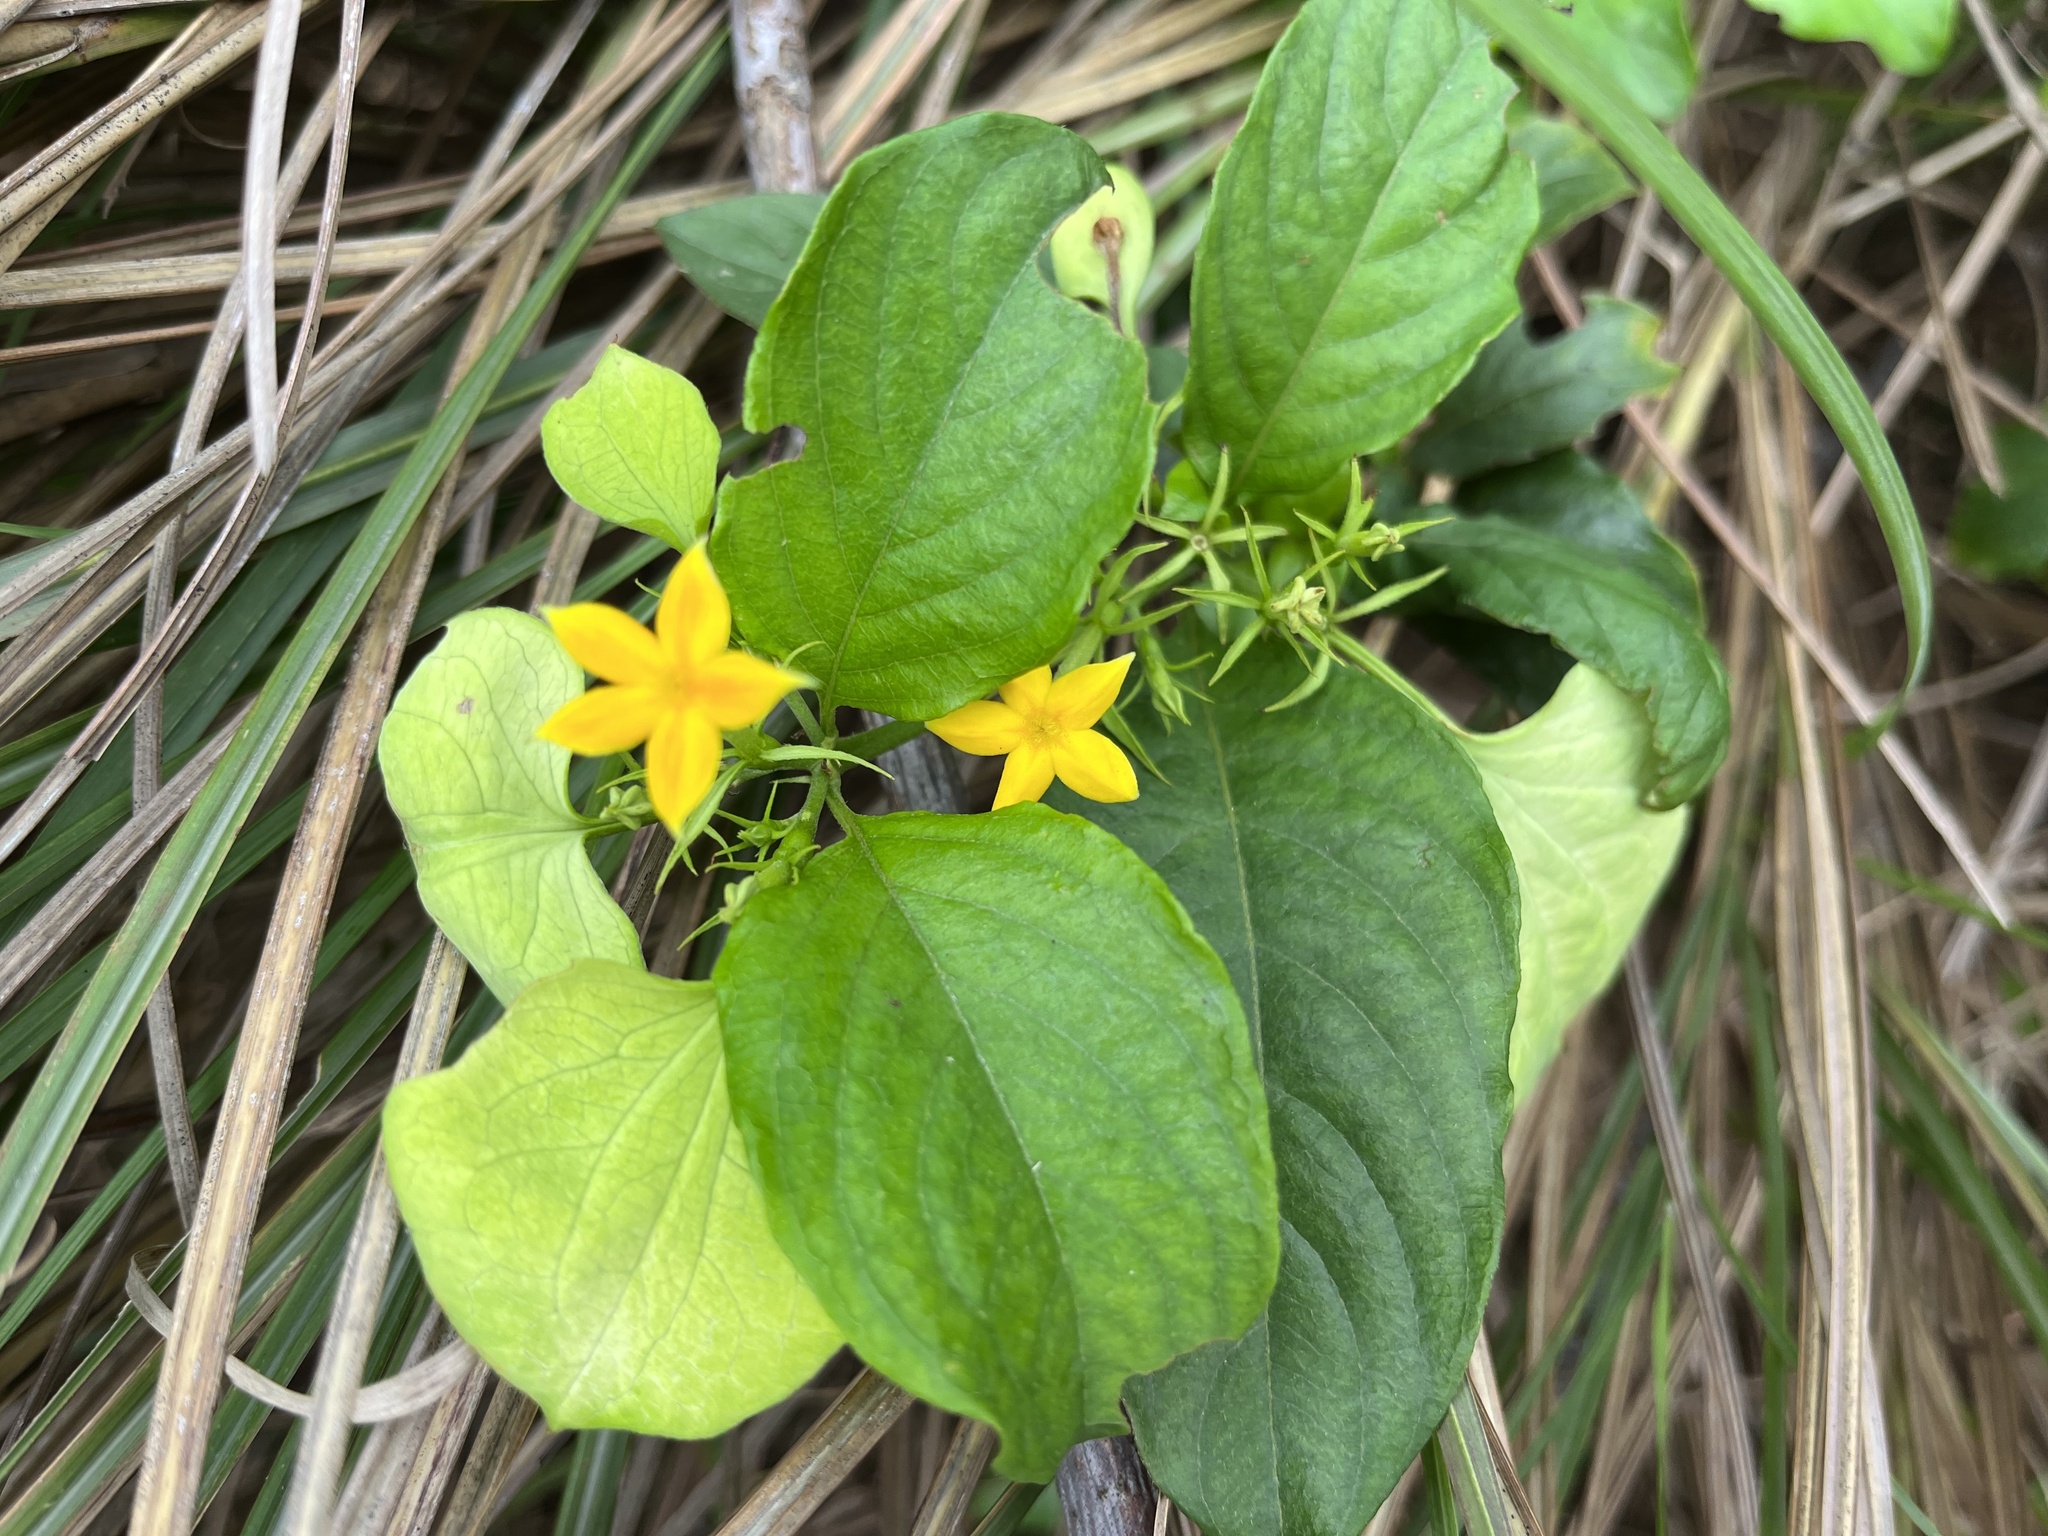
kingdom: Plantae
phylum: Tracheophyta
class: Magnoliopsida
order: Gentianales
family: Rubiaceae
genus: Mussaenda
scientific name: Mussaenda formosana
